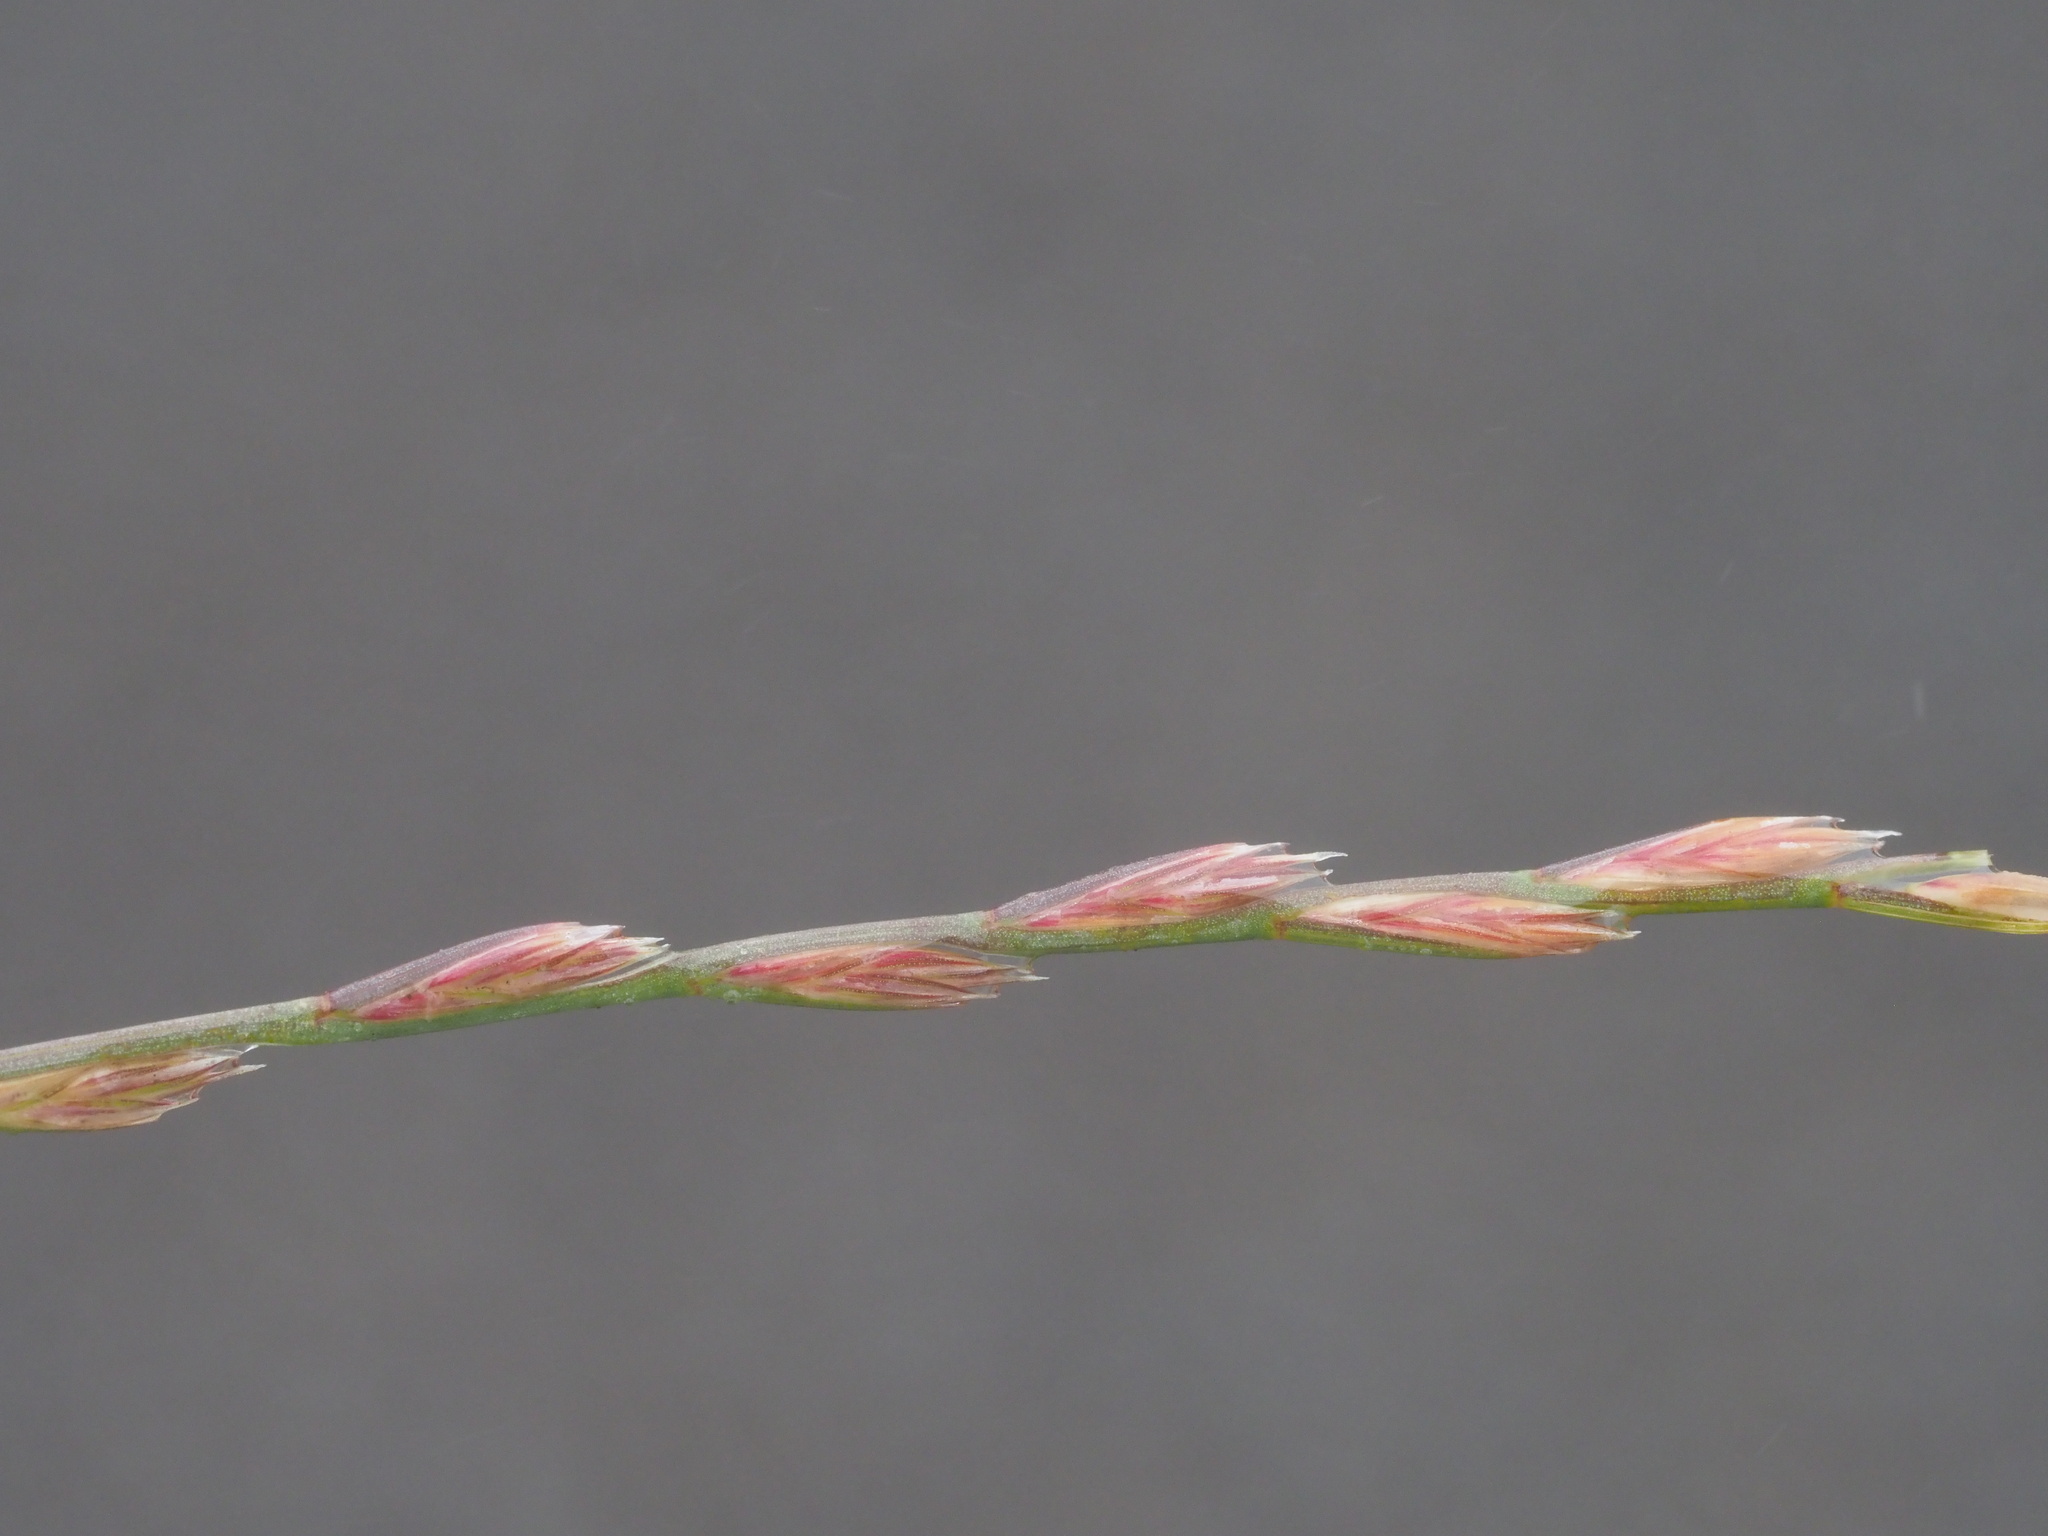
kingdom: Plantae
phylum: Tracheophyta
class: Liliopsida
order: Poales
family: Poaceae
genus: Lolium
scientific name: Lolium perenne
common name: Perennial ryegrass
